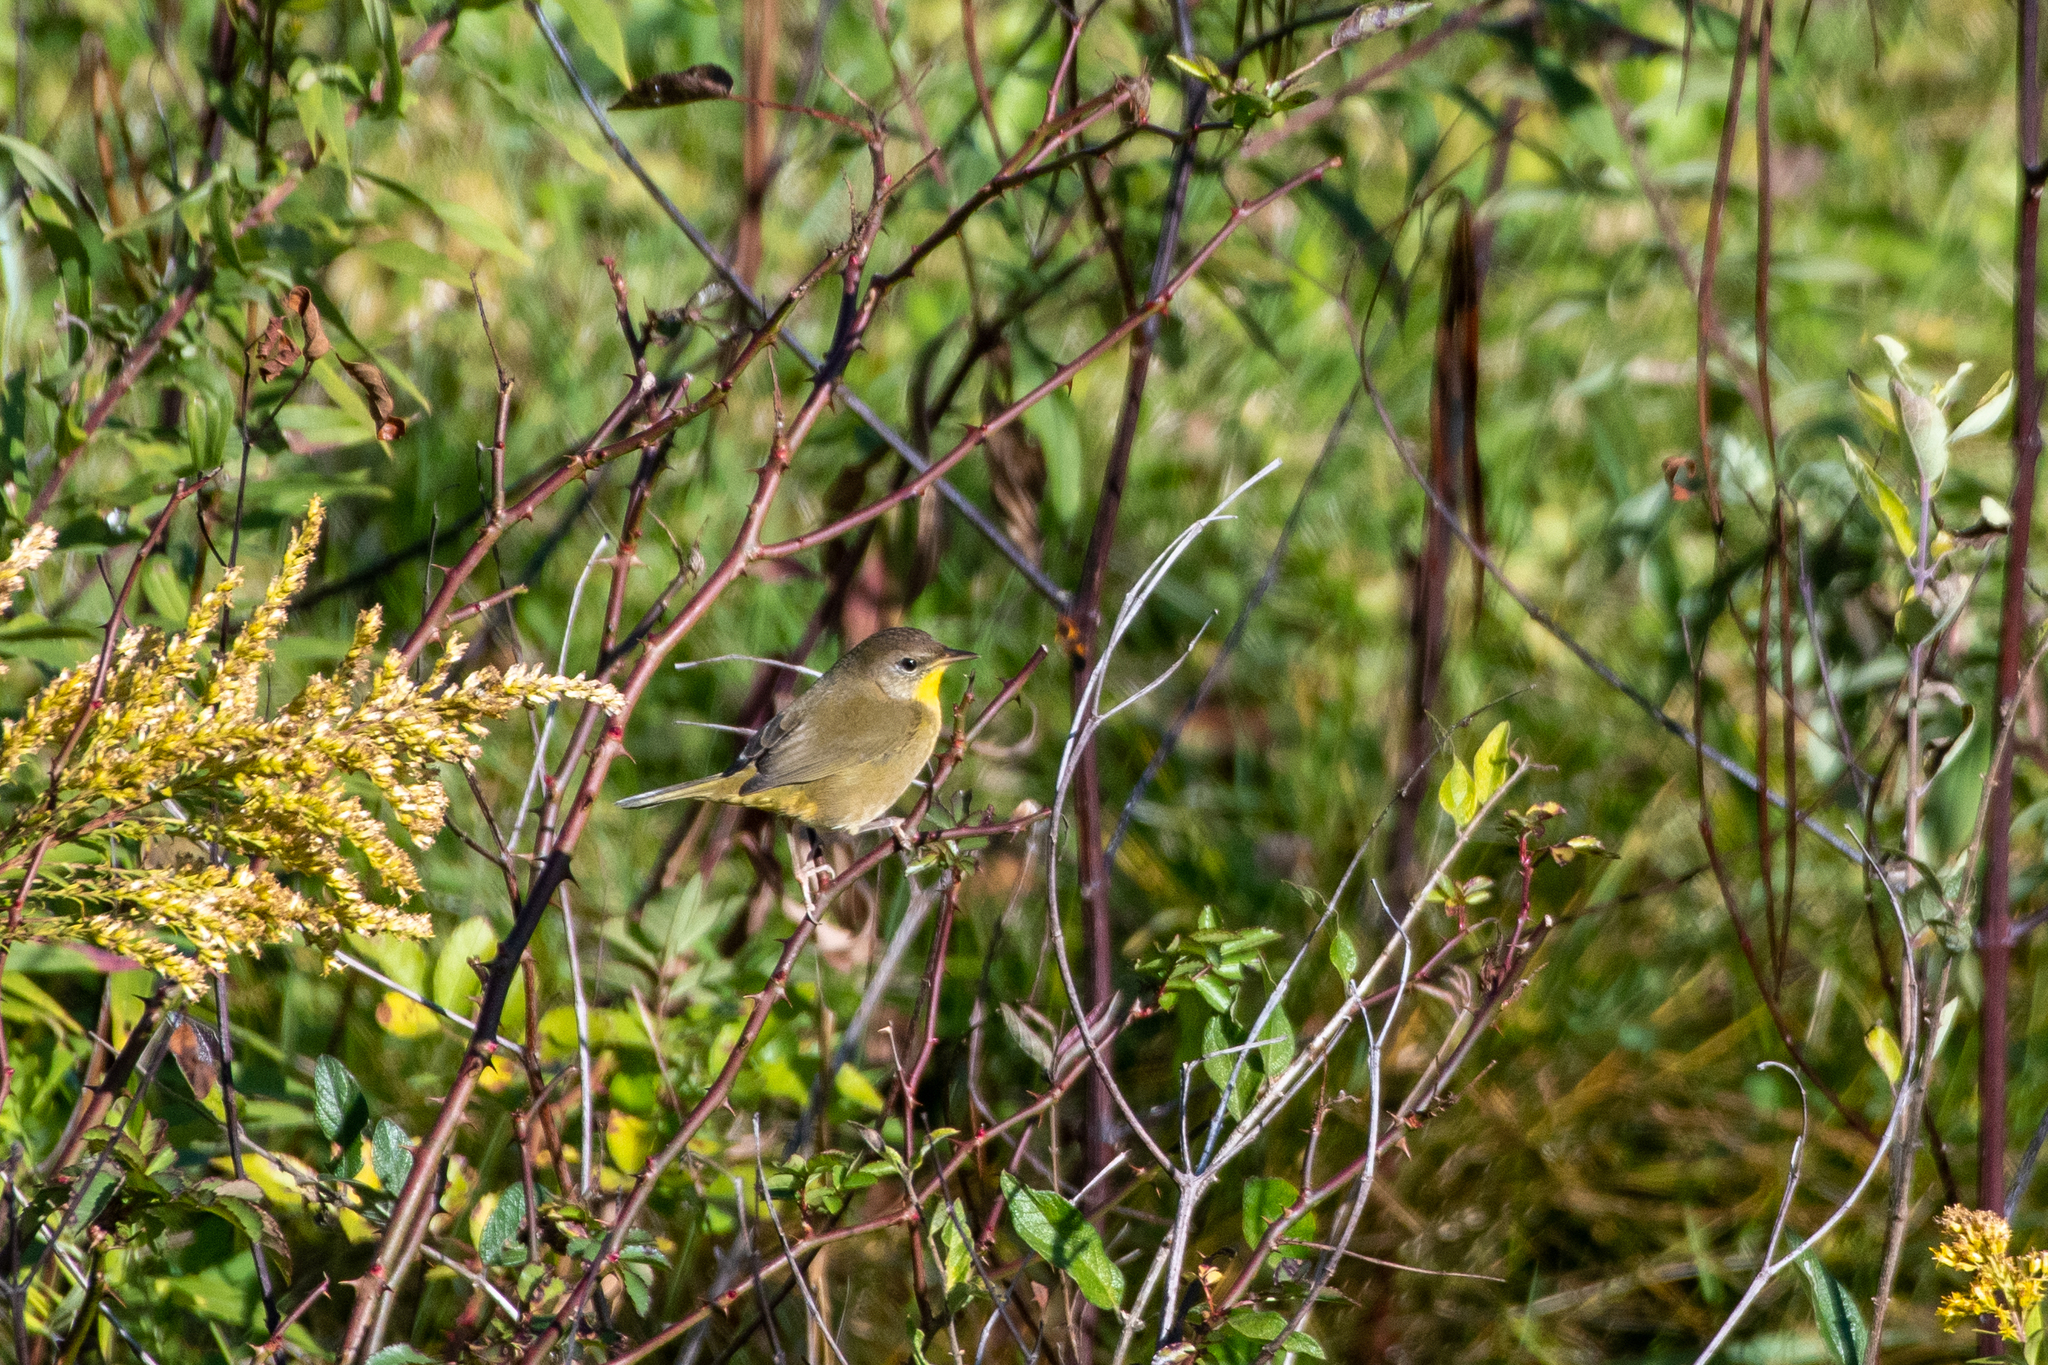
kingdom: Animalia
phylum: Chordata
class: Aves
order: Passeriformes
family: Parulidae
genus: Geothlypis
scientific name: Geothlypis trichas
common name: Common yellowthroat
